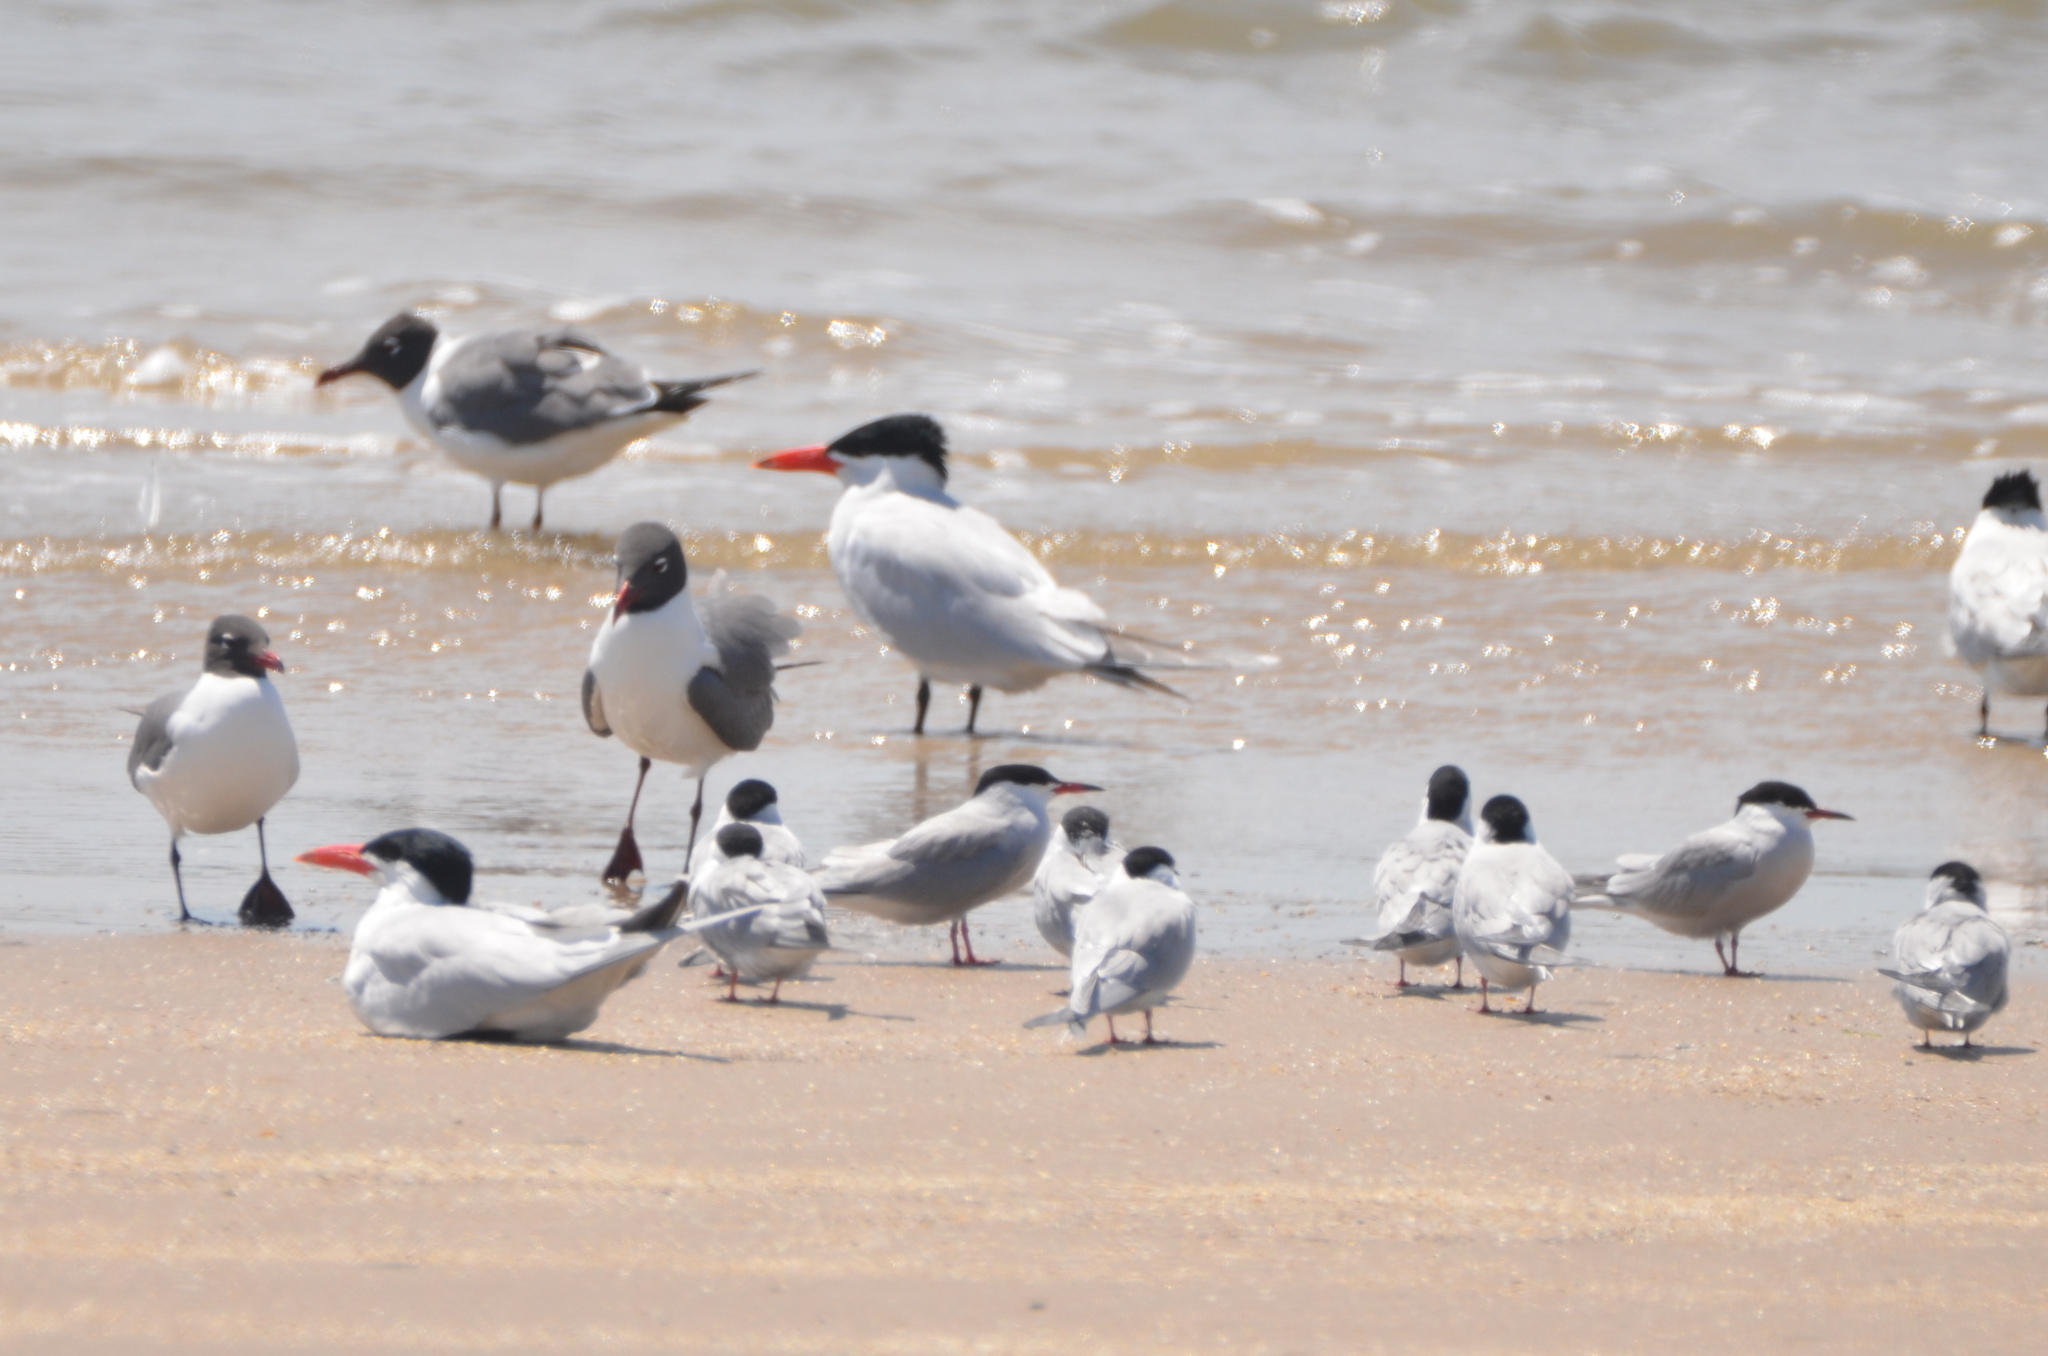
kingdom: Animalia
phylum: Chordata
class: Aves
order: Charadriiformes
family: Laridae
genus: Hydroprogne
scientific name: Hydroprogne caspia
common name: Caspian tern
